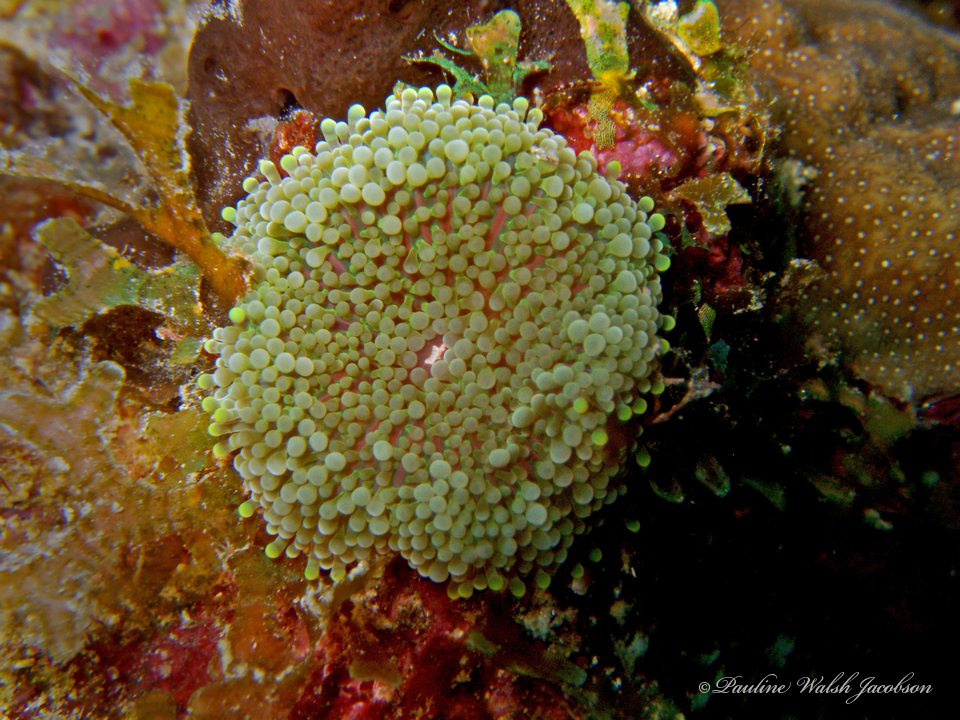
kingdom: Animalia
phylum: Cnidaria
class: Anthozoa
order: Corallimorpharia
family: Ricordeidae
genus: Ricordea
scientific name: Ricordea florida
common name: False coral
